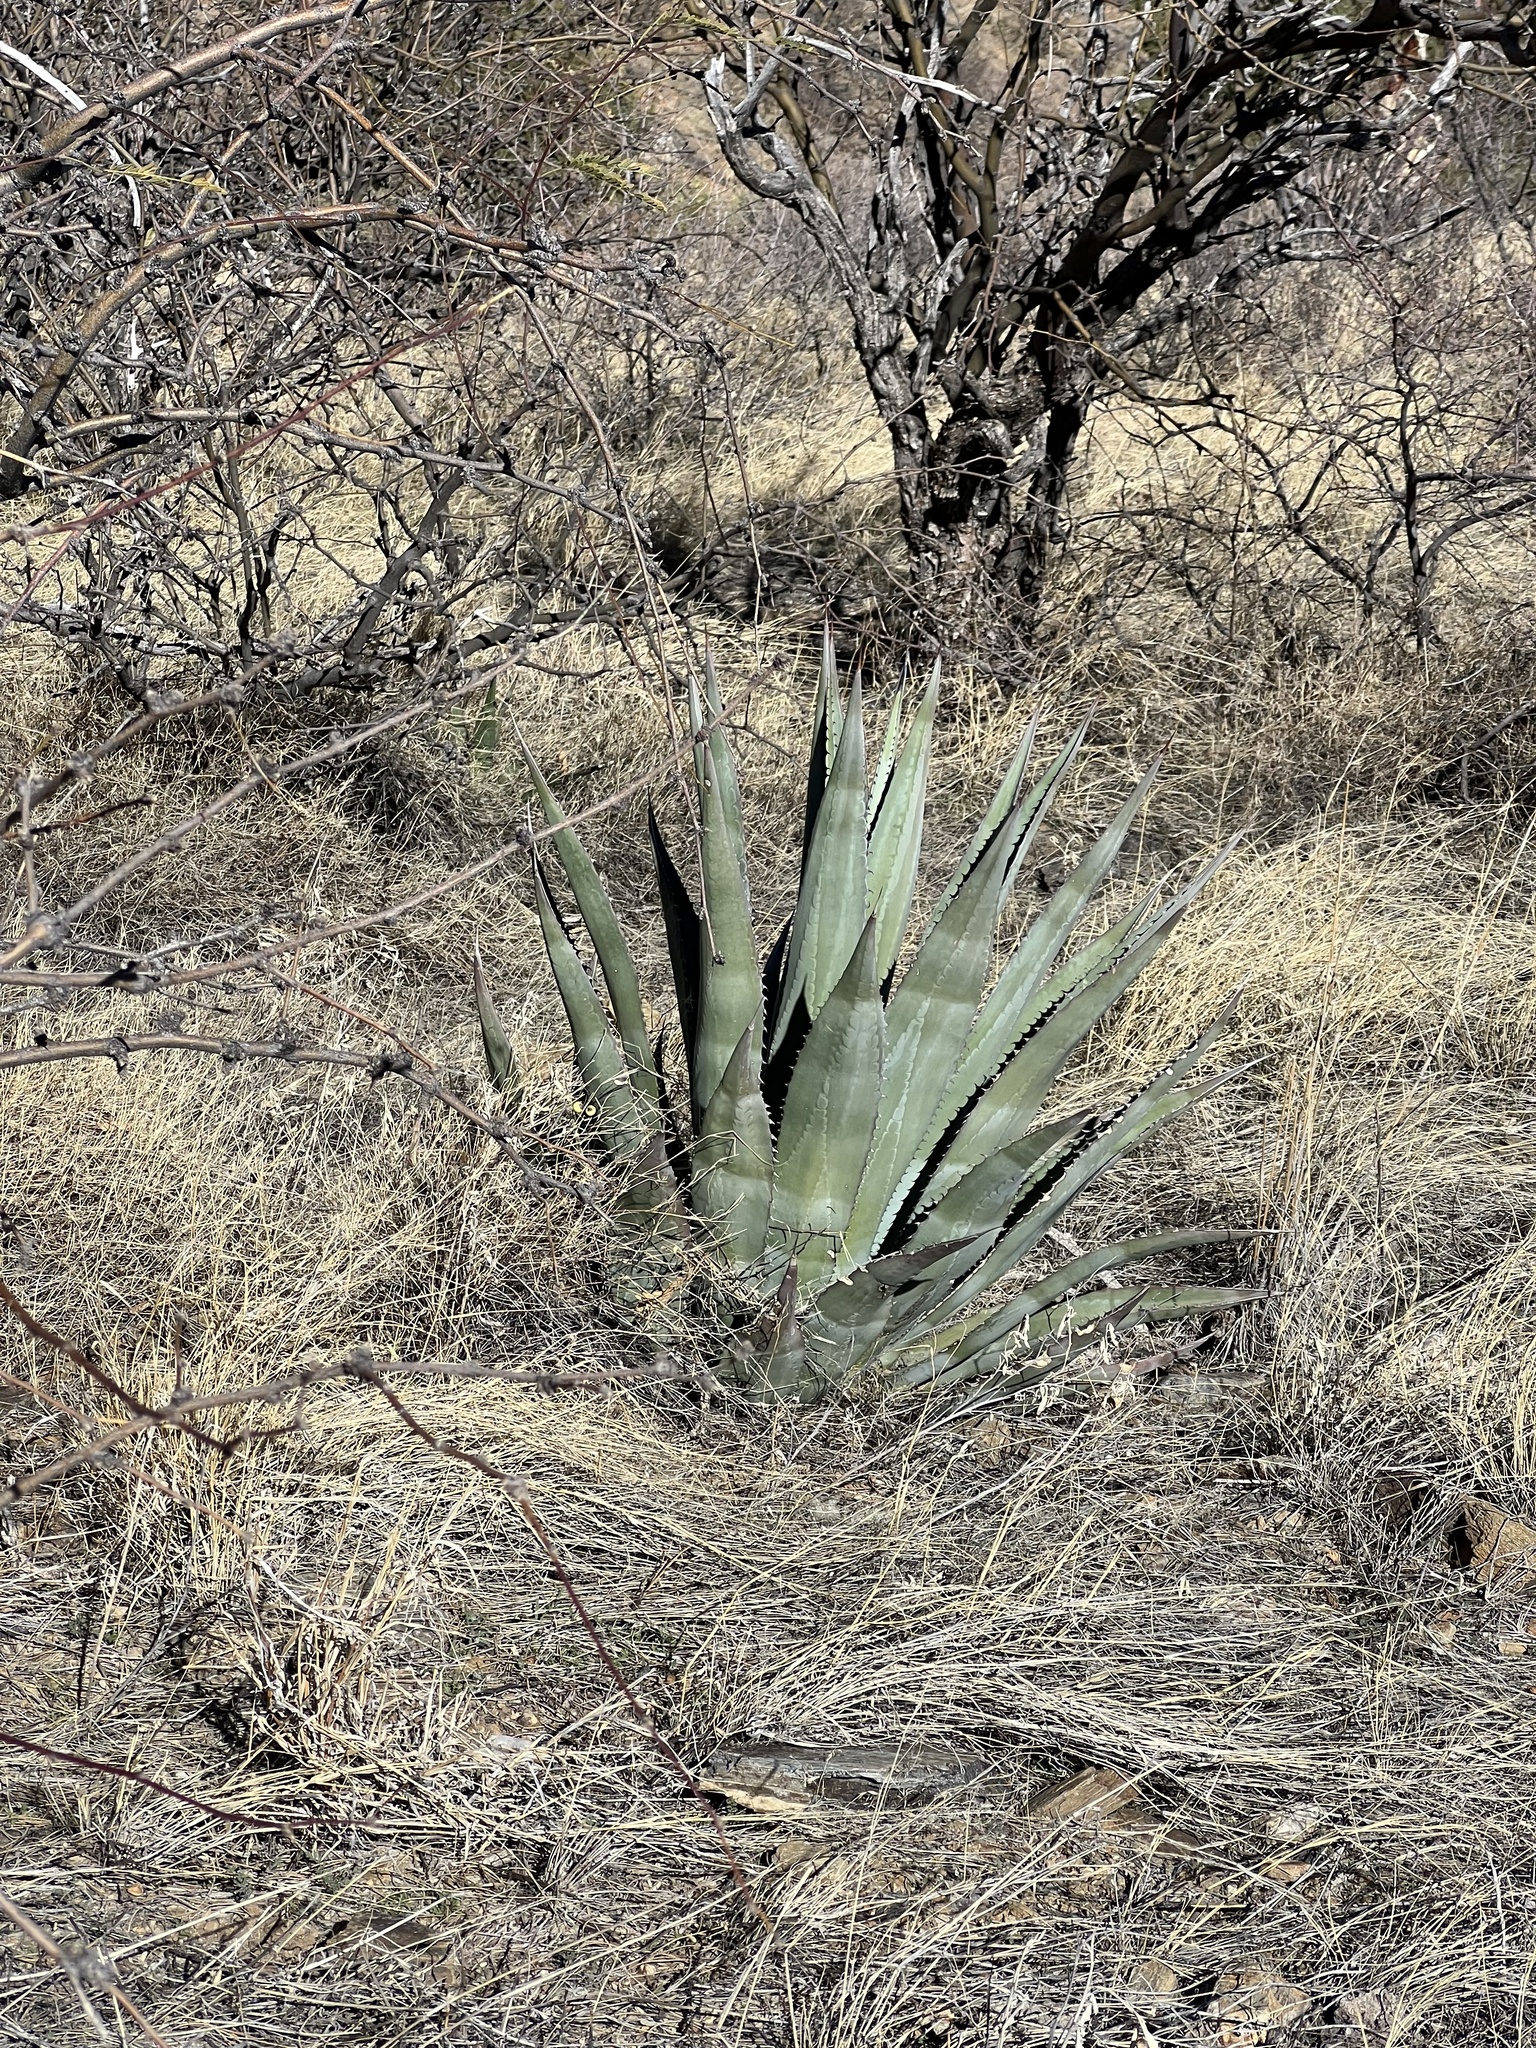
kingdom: Plantae
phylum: Tracheophyta
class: Liliopsida
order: Asparagales
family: Asparagaceae
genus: Agave
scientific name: Agave palmeri
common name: Palmer agave
